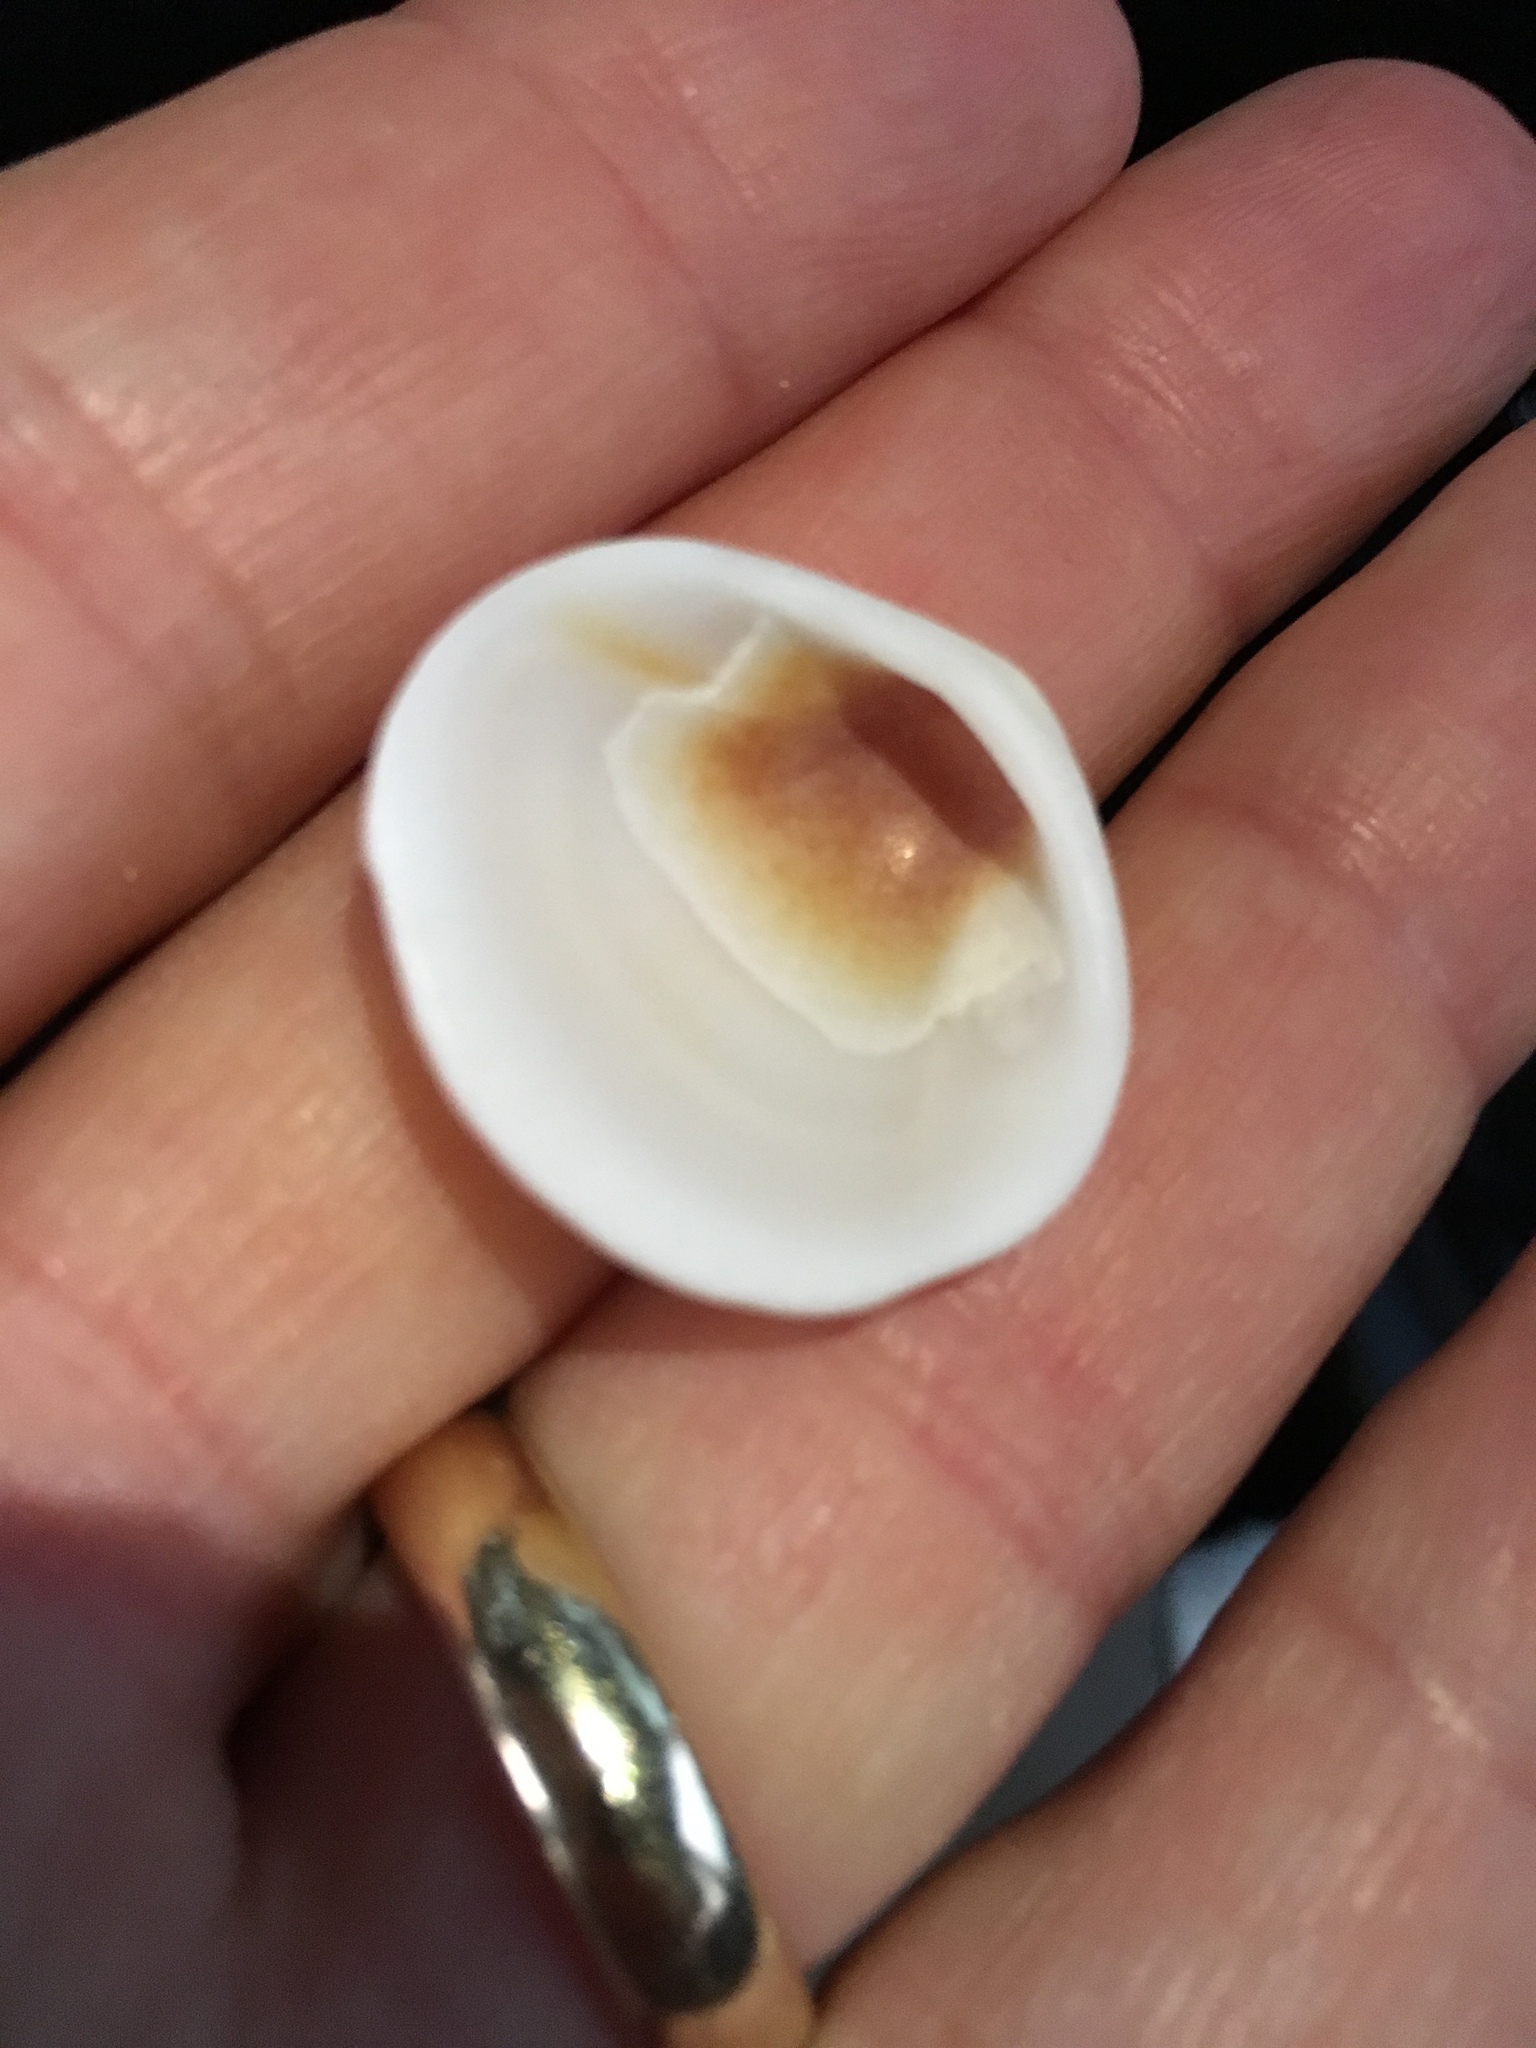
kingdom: Animalia
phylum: Mollusca
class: Bivalvia
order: Arcida
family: Glycymerididae
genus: Glycymeris
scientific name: Glycymeris spectralis
